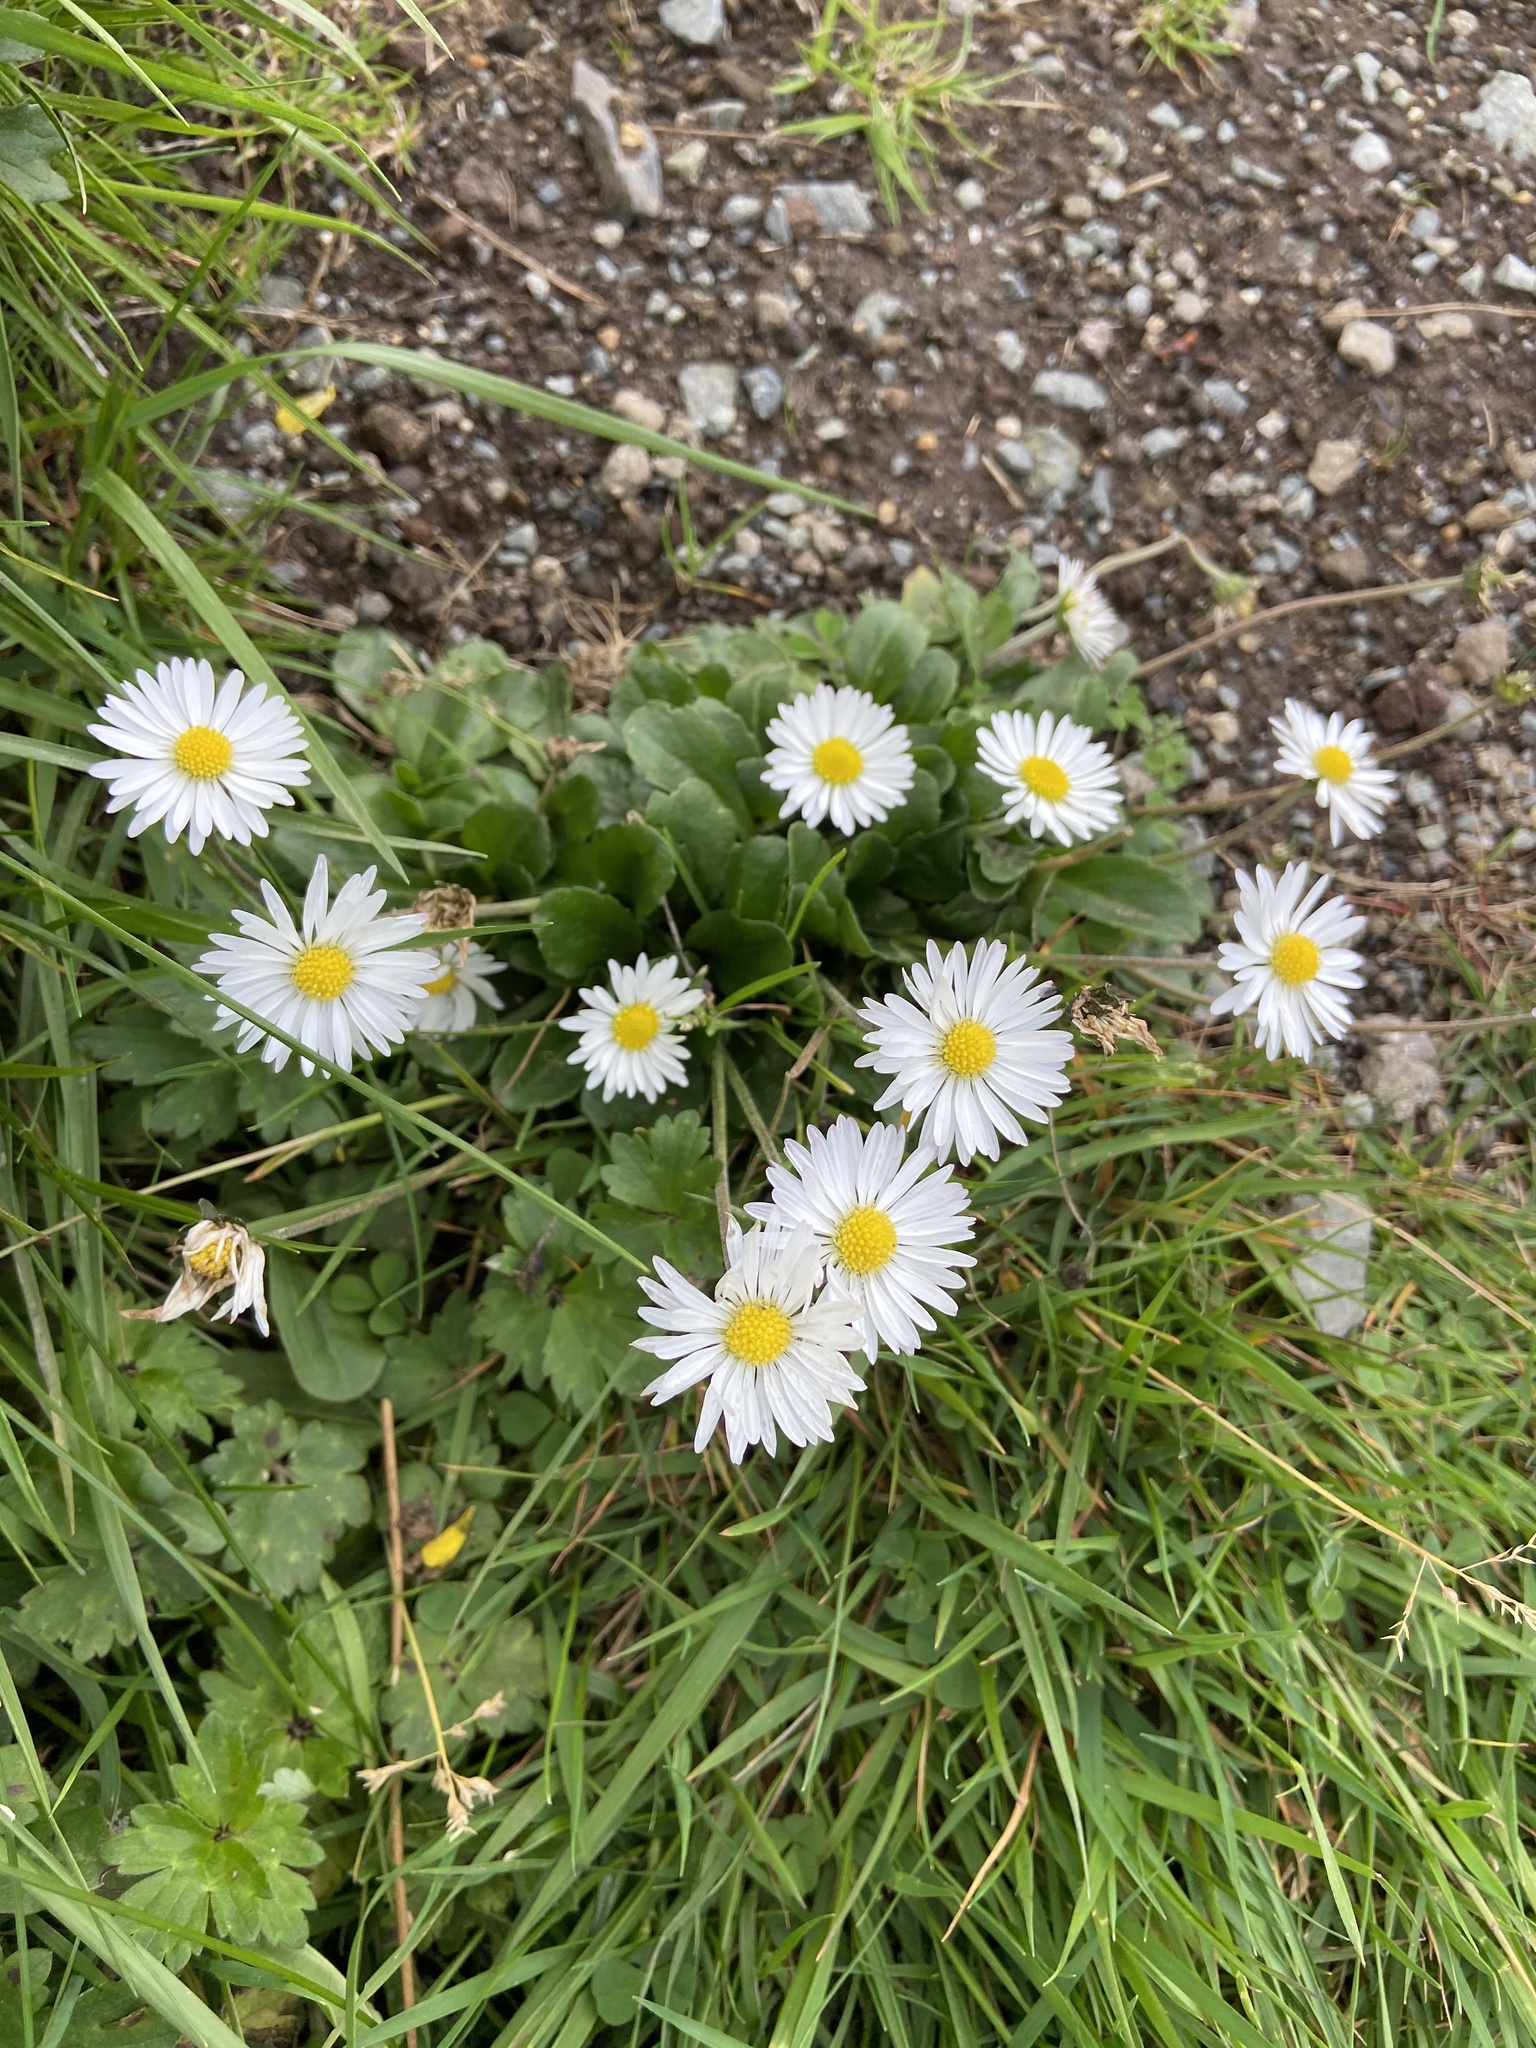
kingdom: Plantae
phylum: Tracheophyta
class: Magnoliopsida
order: Asterales
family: Asteraceae
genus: Bellis
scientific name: Bellis perennis
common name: Lawndaisy
